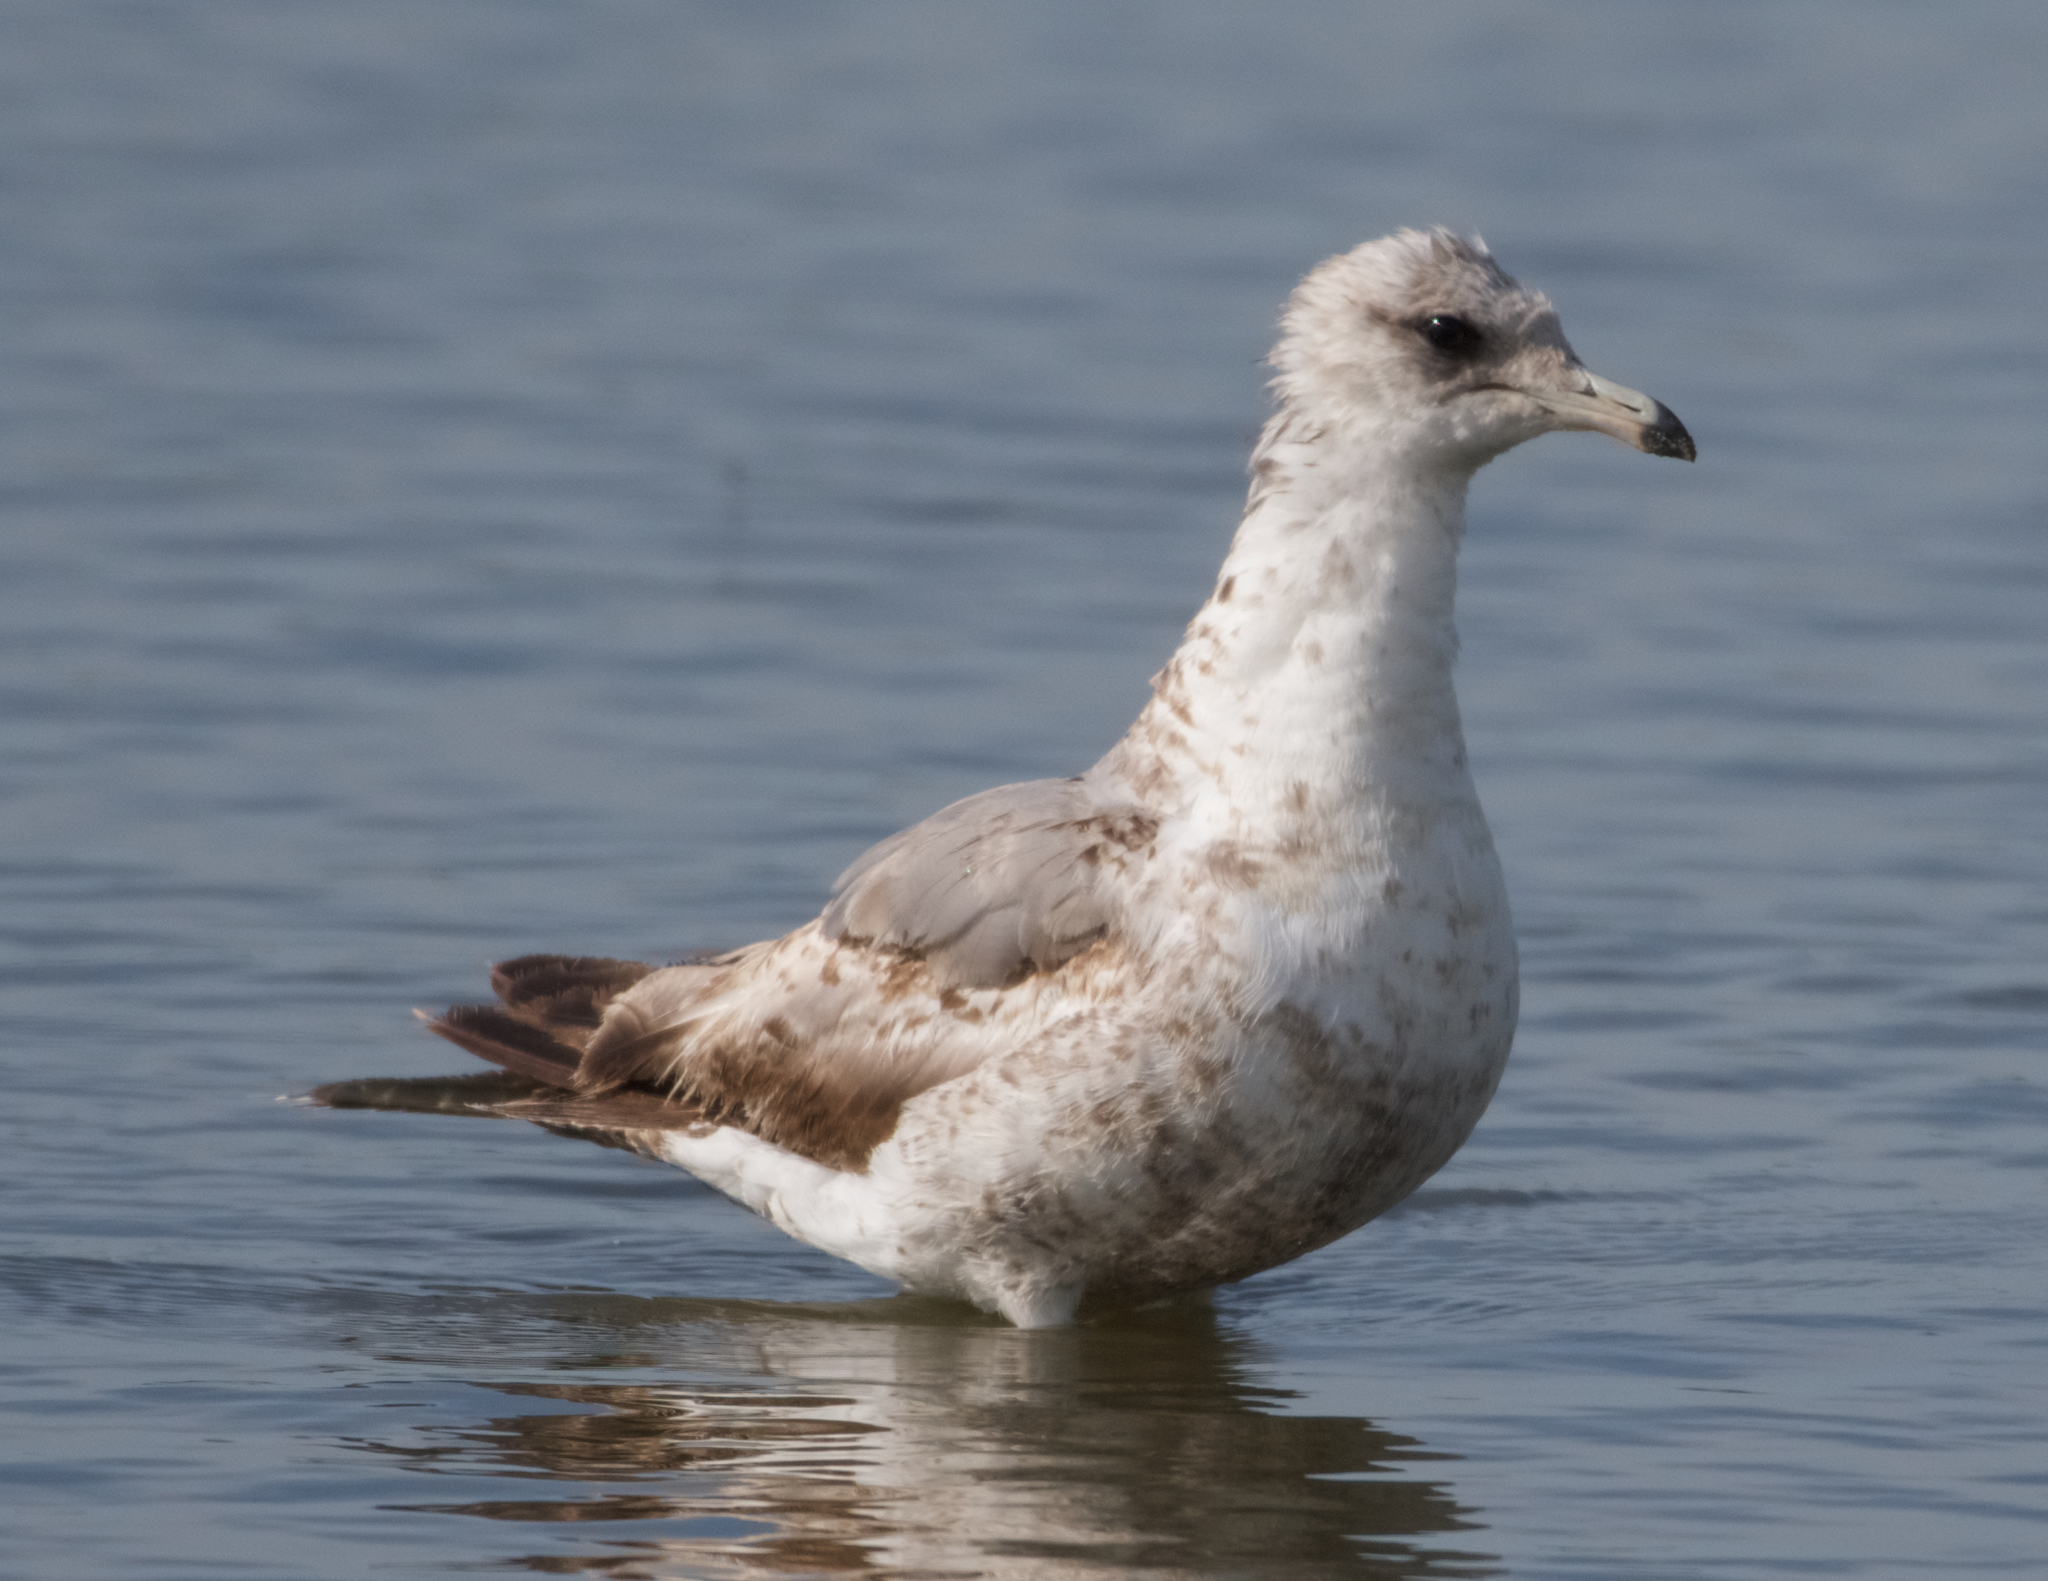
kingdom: Animalia
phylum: Chordata
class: Aves
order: Charadriiformes
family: Laridae
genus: Larus
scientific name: Larus californicus
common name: California gull
